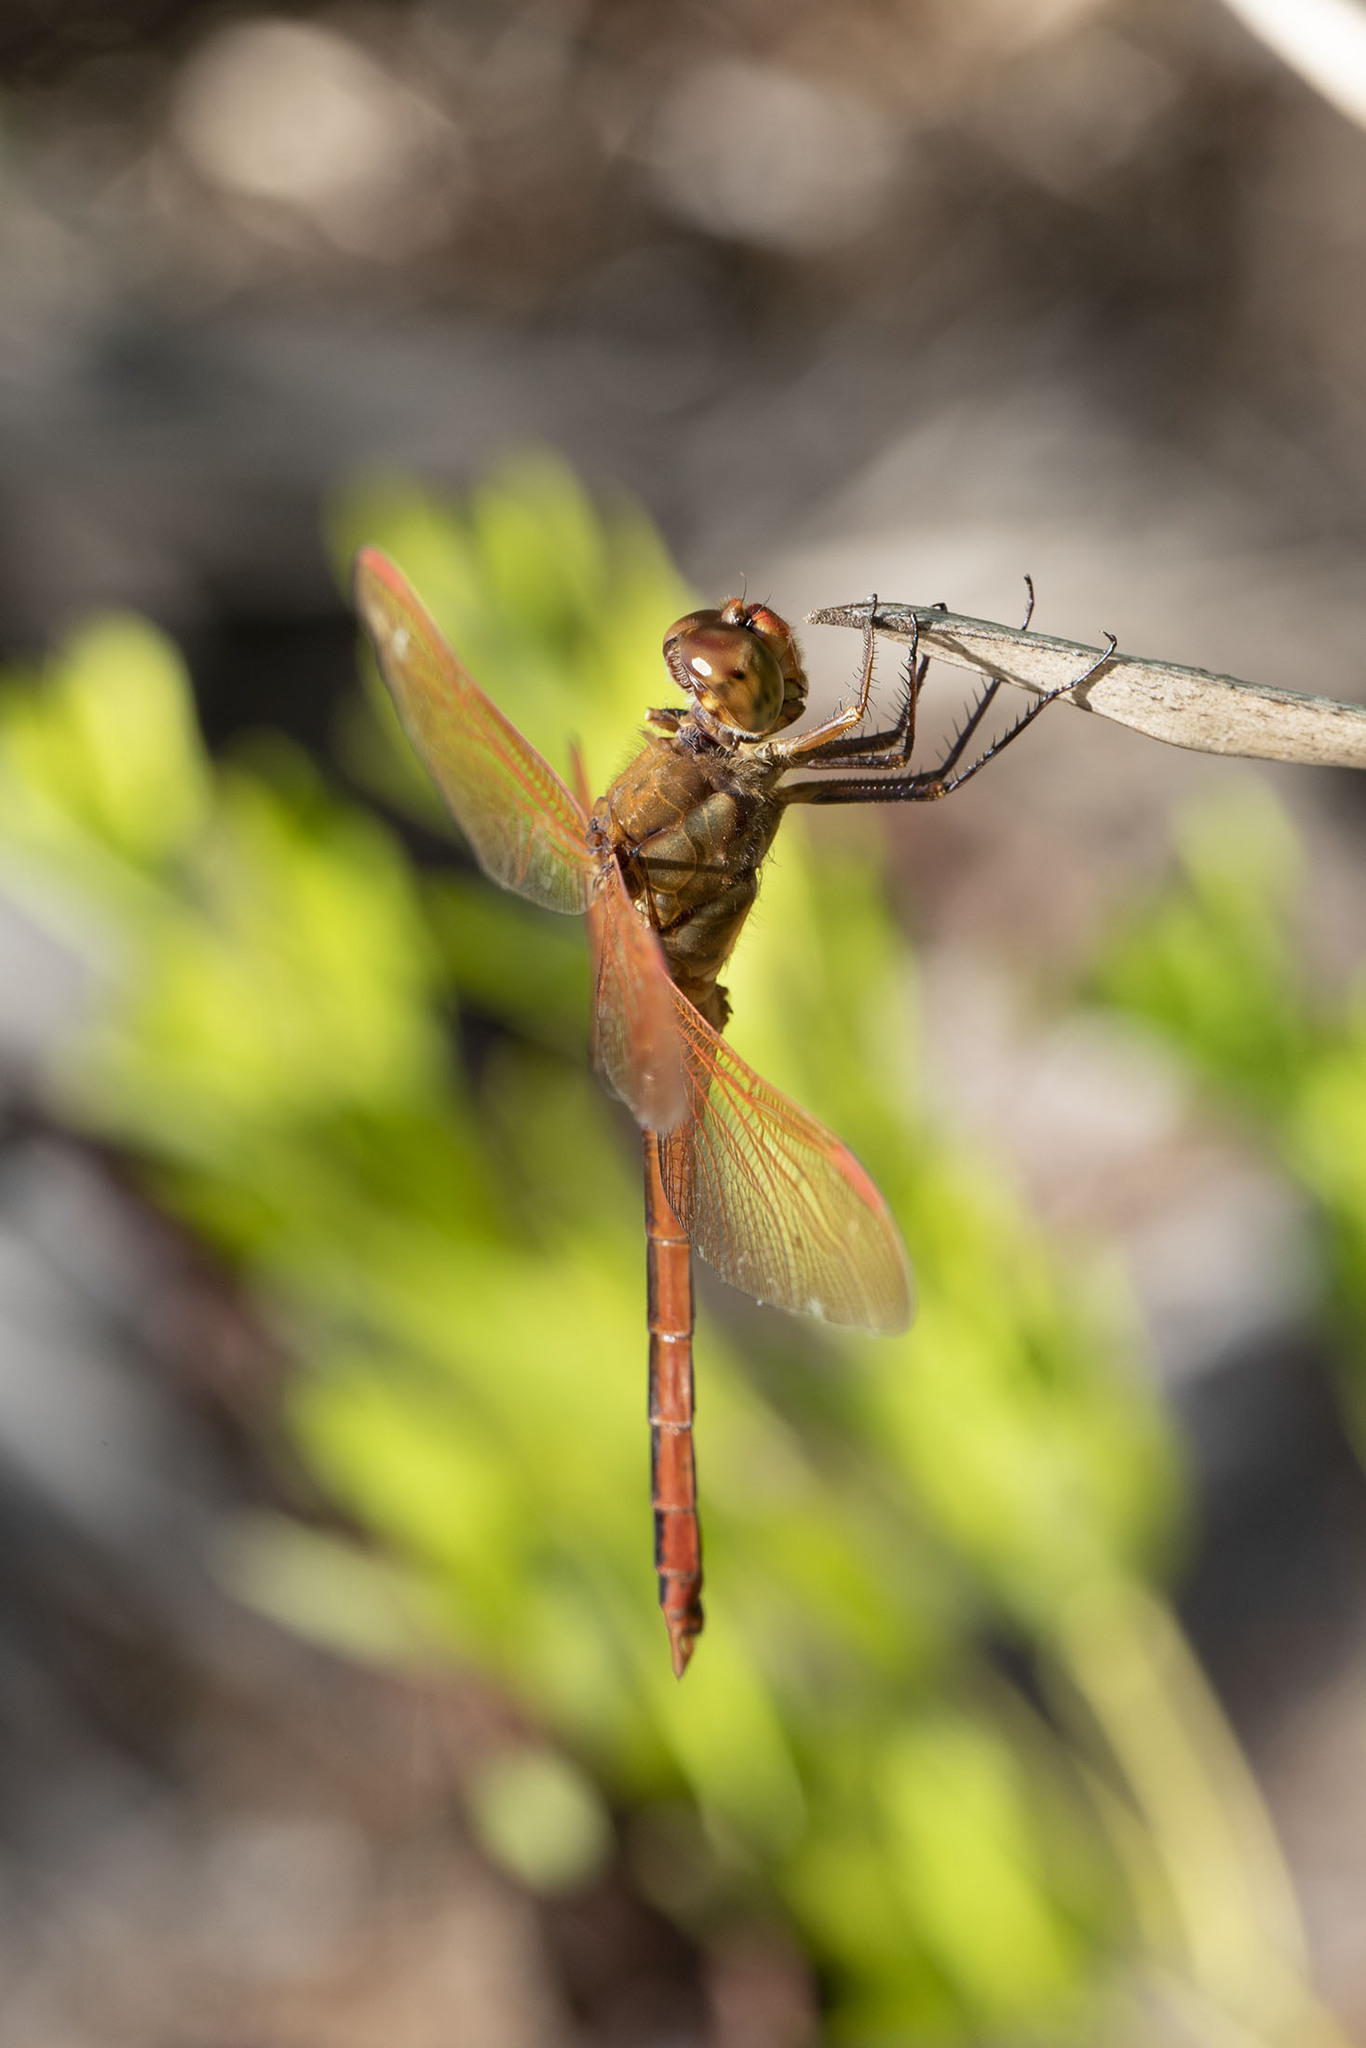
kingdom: Animalia
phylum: Arthropoda
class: Insecta
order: Odonata
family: Libellulidae
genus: Libellula
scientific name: Libellula auripennis
